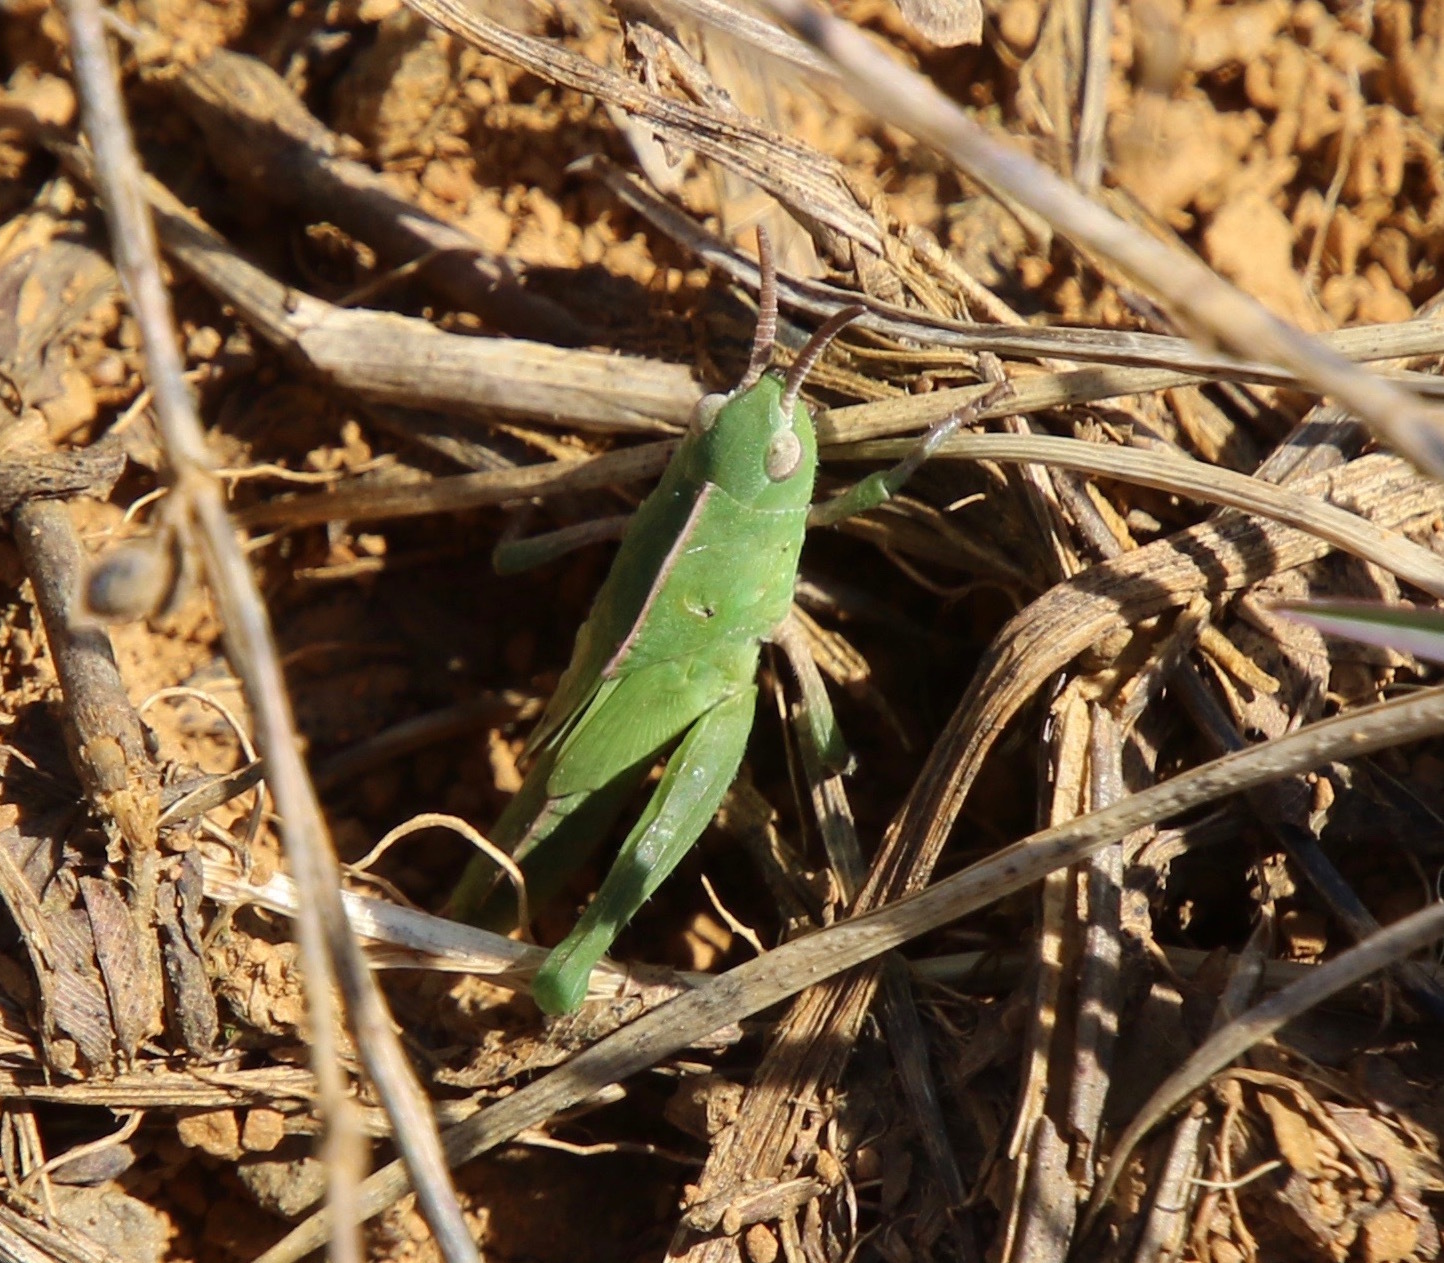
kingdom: Animalia
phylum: Arthropoda
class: Insecta
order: Orthoptera
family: Acrididae
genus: Chortophaga
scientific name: Chortophaga viridifasciata
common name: Green-striped grasshopper
